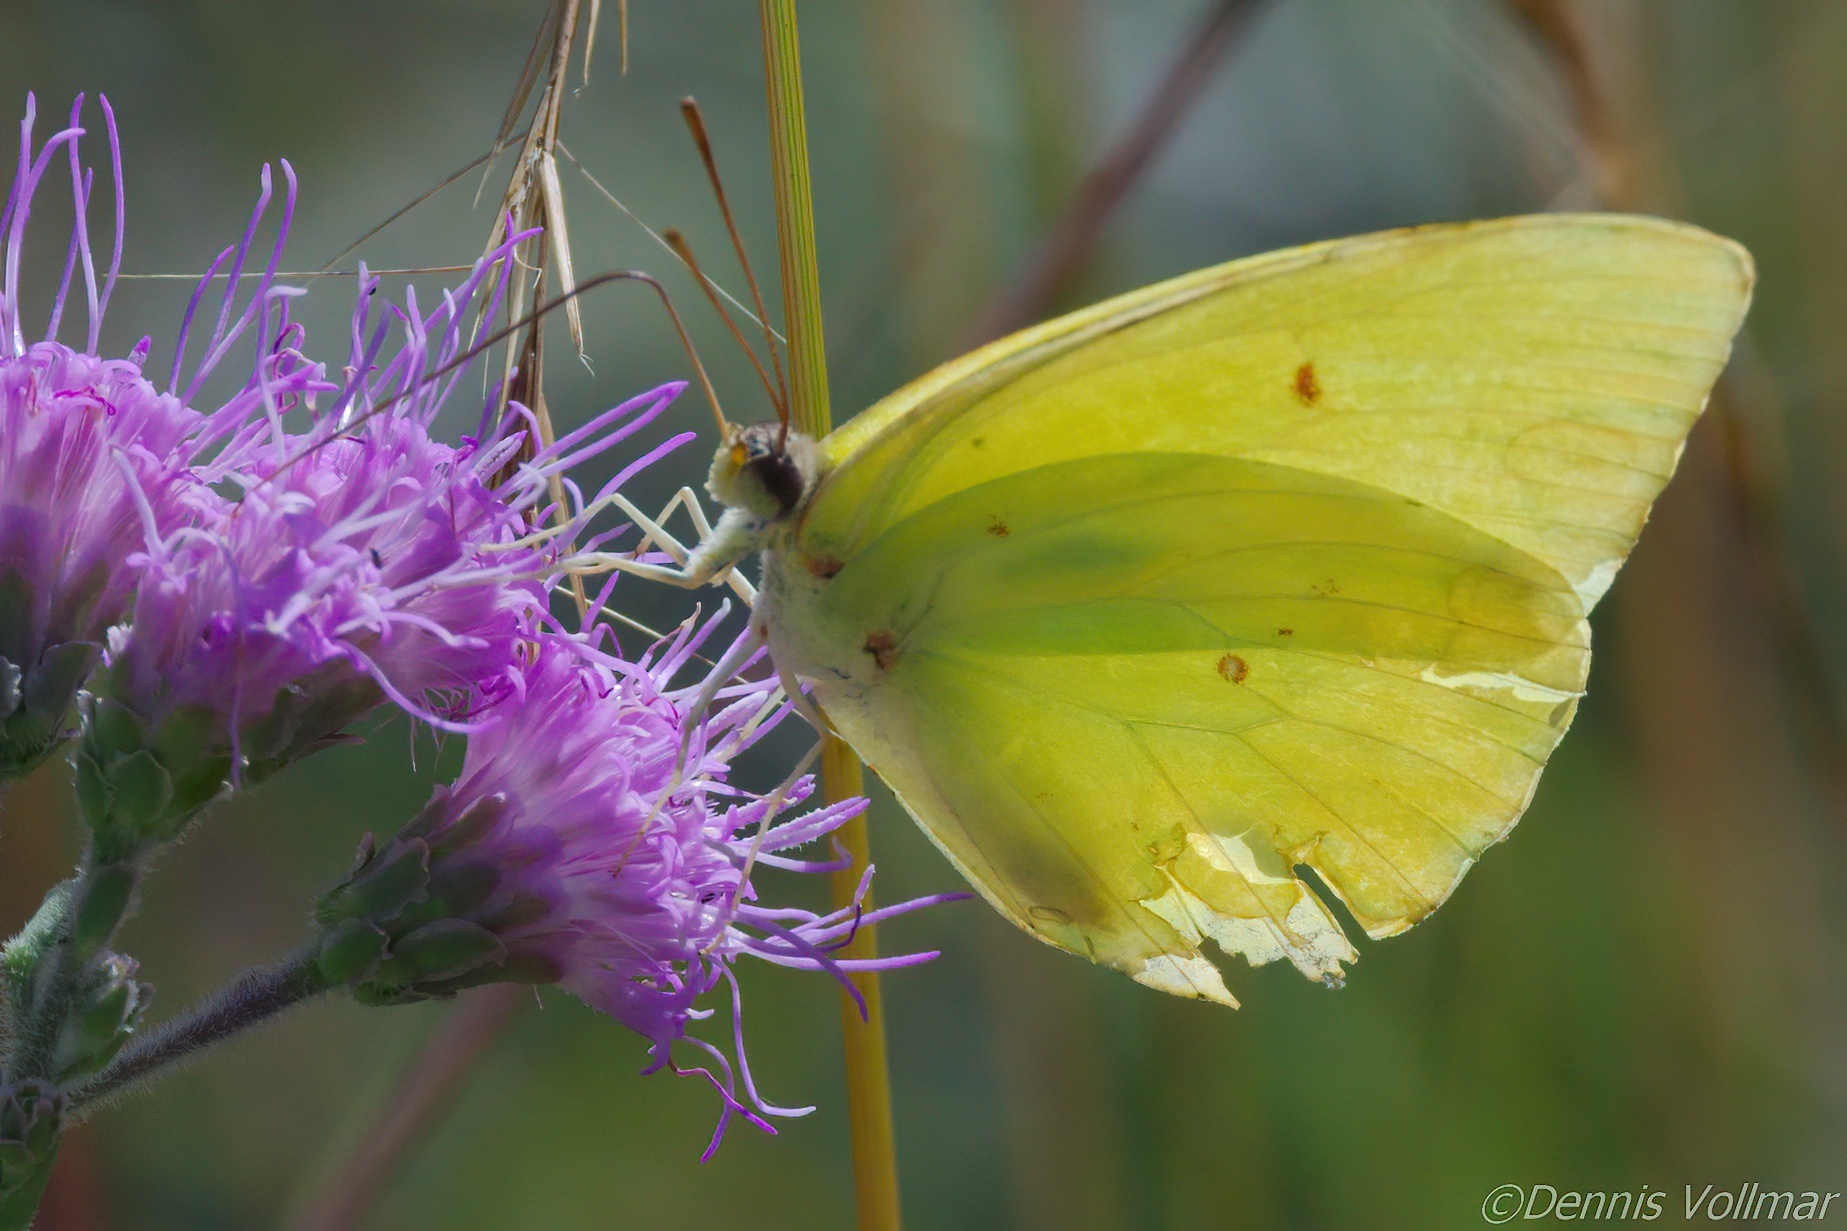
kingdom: Animalia
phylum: Arthropoda
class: Insecta
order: Lepidoptera
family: Pieridae
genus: Phoebis
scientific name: Phoebis sennae
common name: Cloudless sulphur
